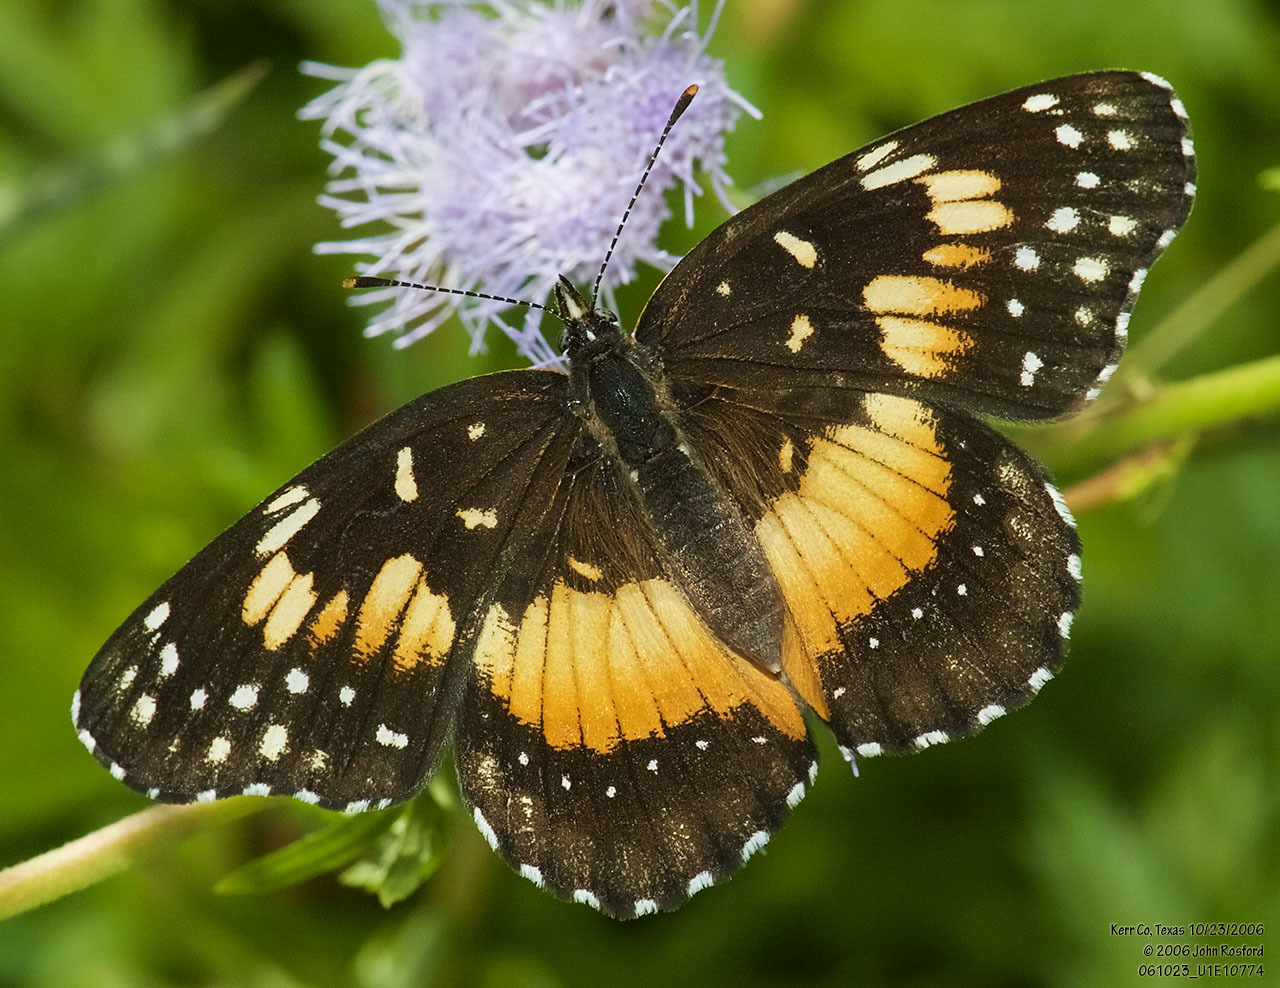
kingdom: Animalia
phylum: Arthropoda
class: Insecta
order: Lepidoptera
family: Nymphalidae
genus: Chlosyne
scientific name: Chlosyne lacinia
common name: Bordered patch
